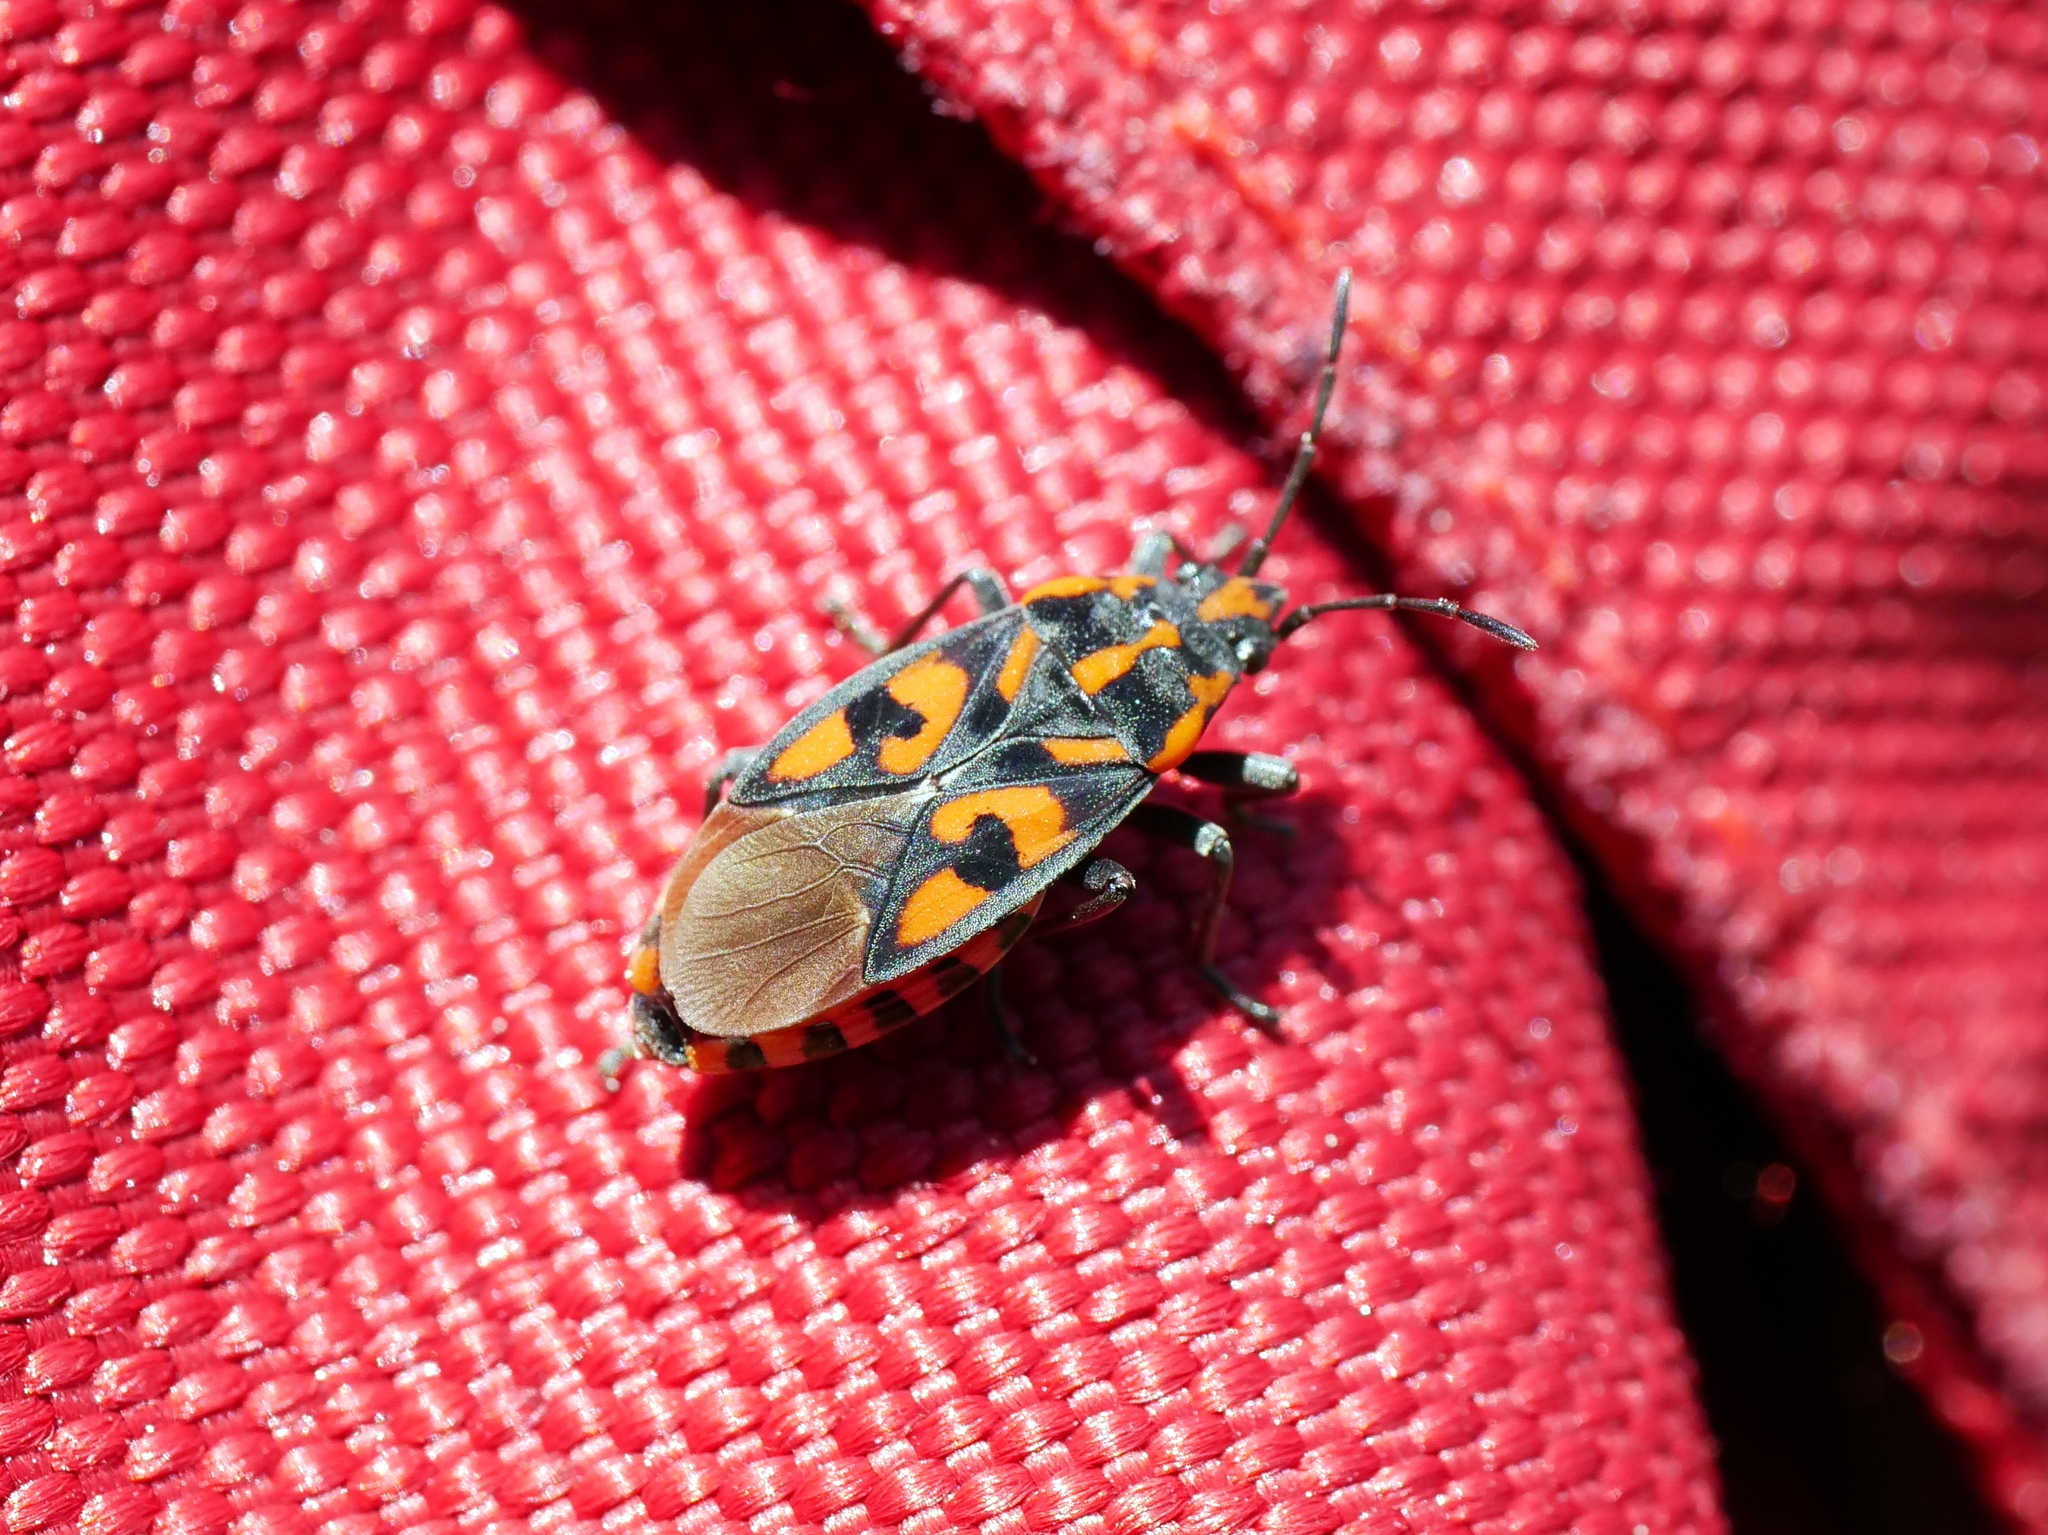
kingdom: Animalia
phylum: Arthropoda
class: Insecta
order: Hemiptera
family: Lygaeidae
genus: Spilostethus
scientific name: Spilostethus saxatilis
